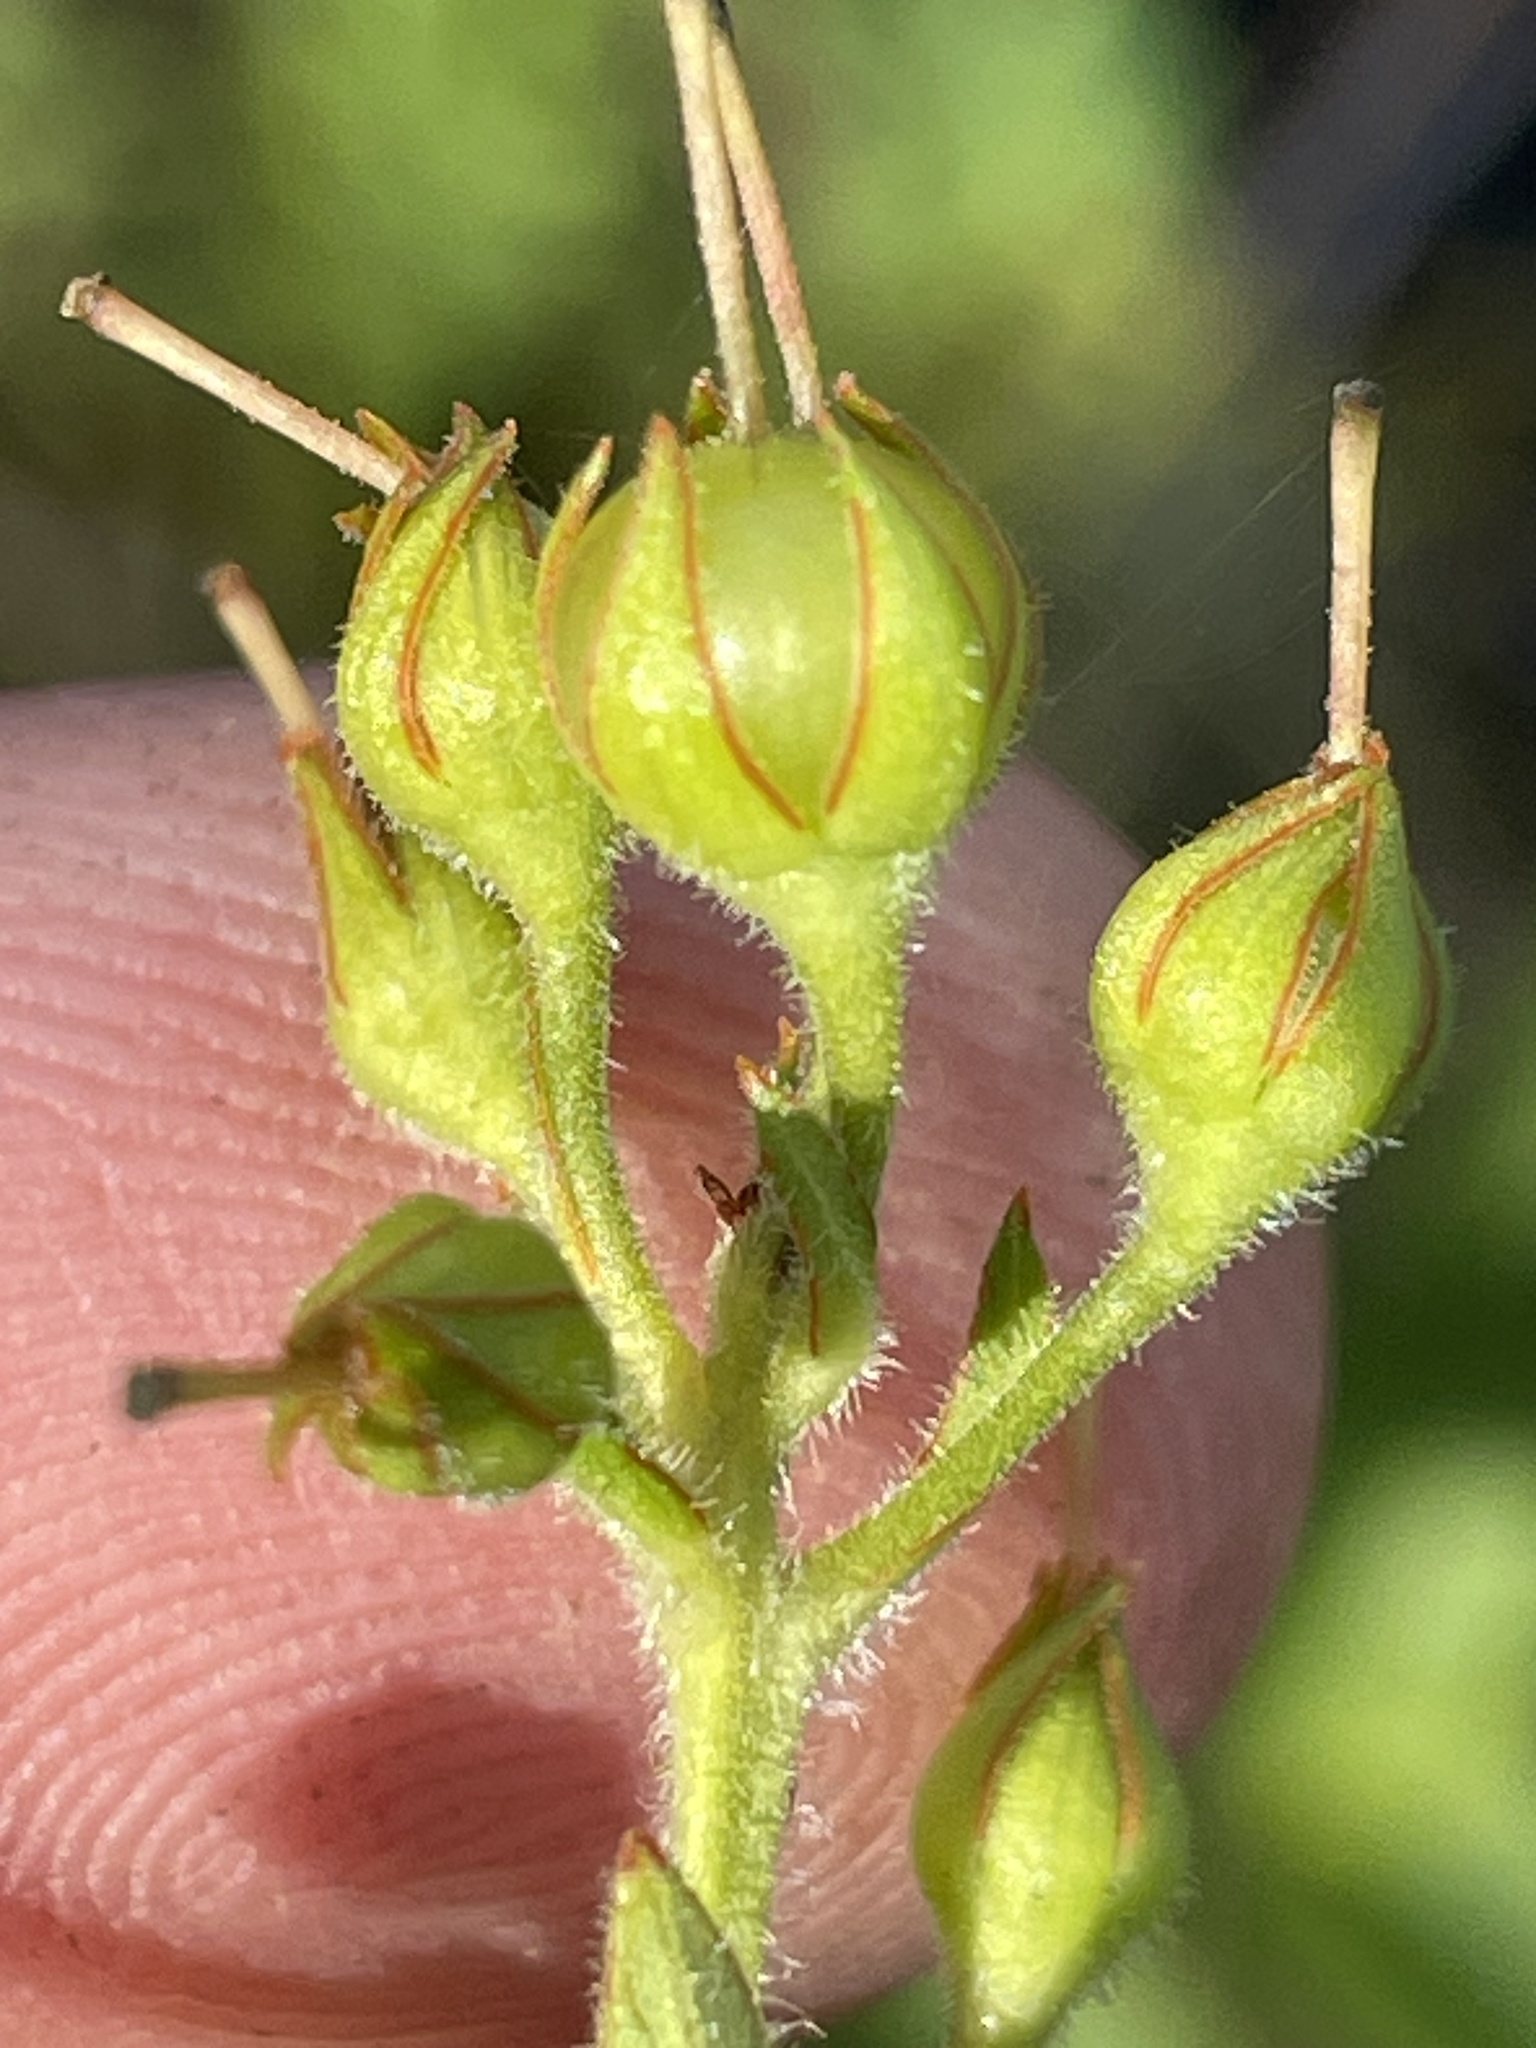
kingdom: Plantae
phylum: Tracheophyta
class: Magnoliopsida
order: Ericales
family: Primulaceae
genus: Lysimachia
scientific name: Lysimachia vulgaris
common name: Yellow loosestrife
